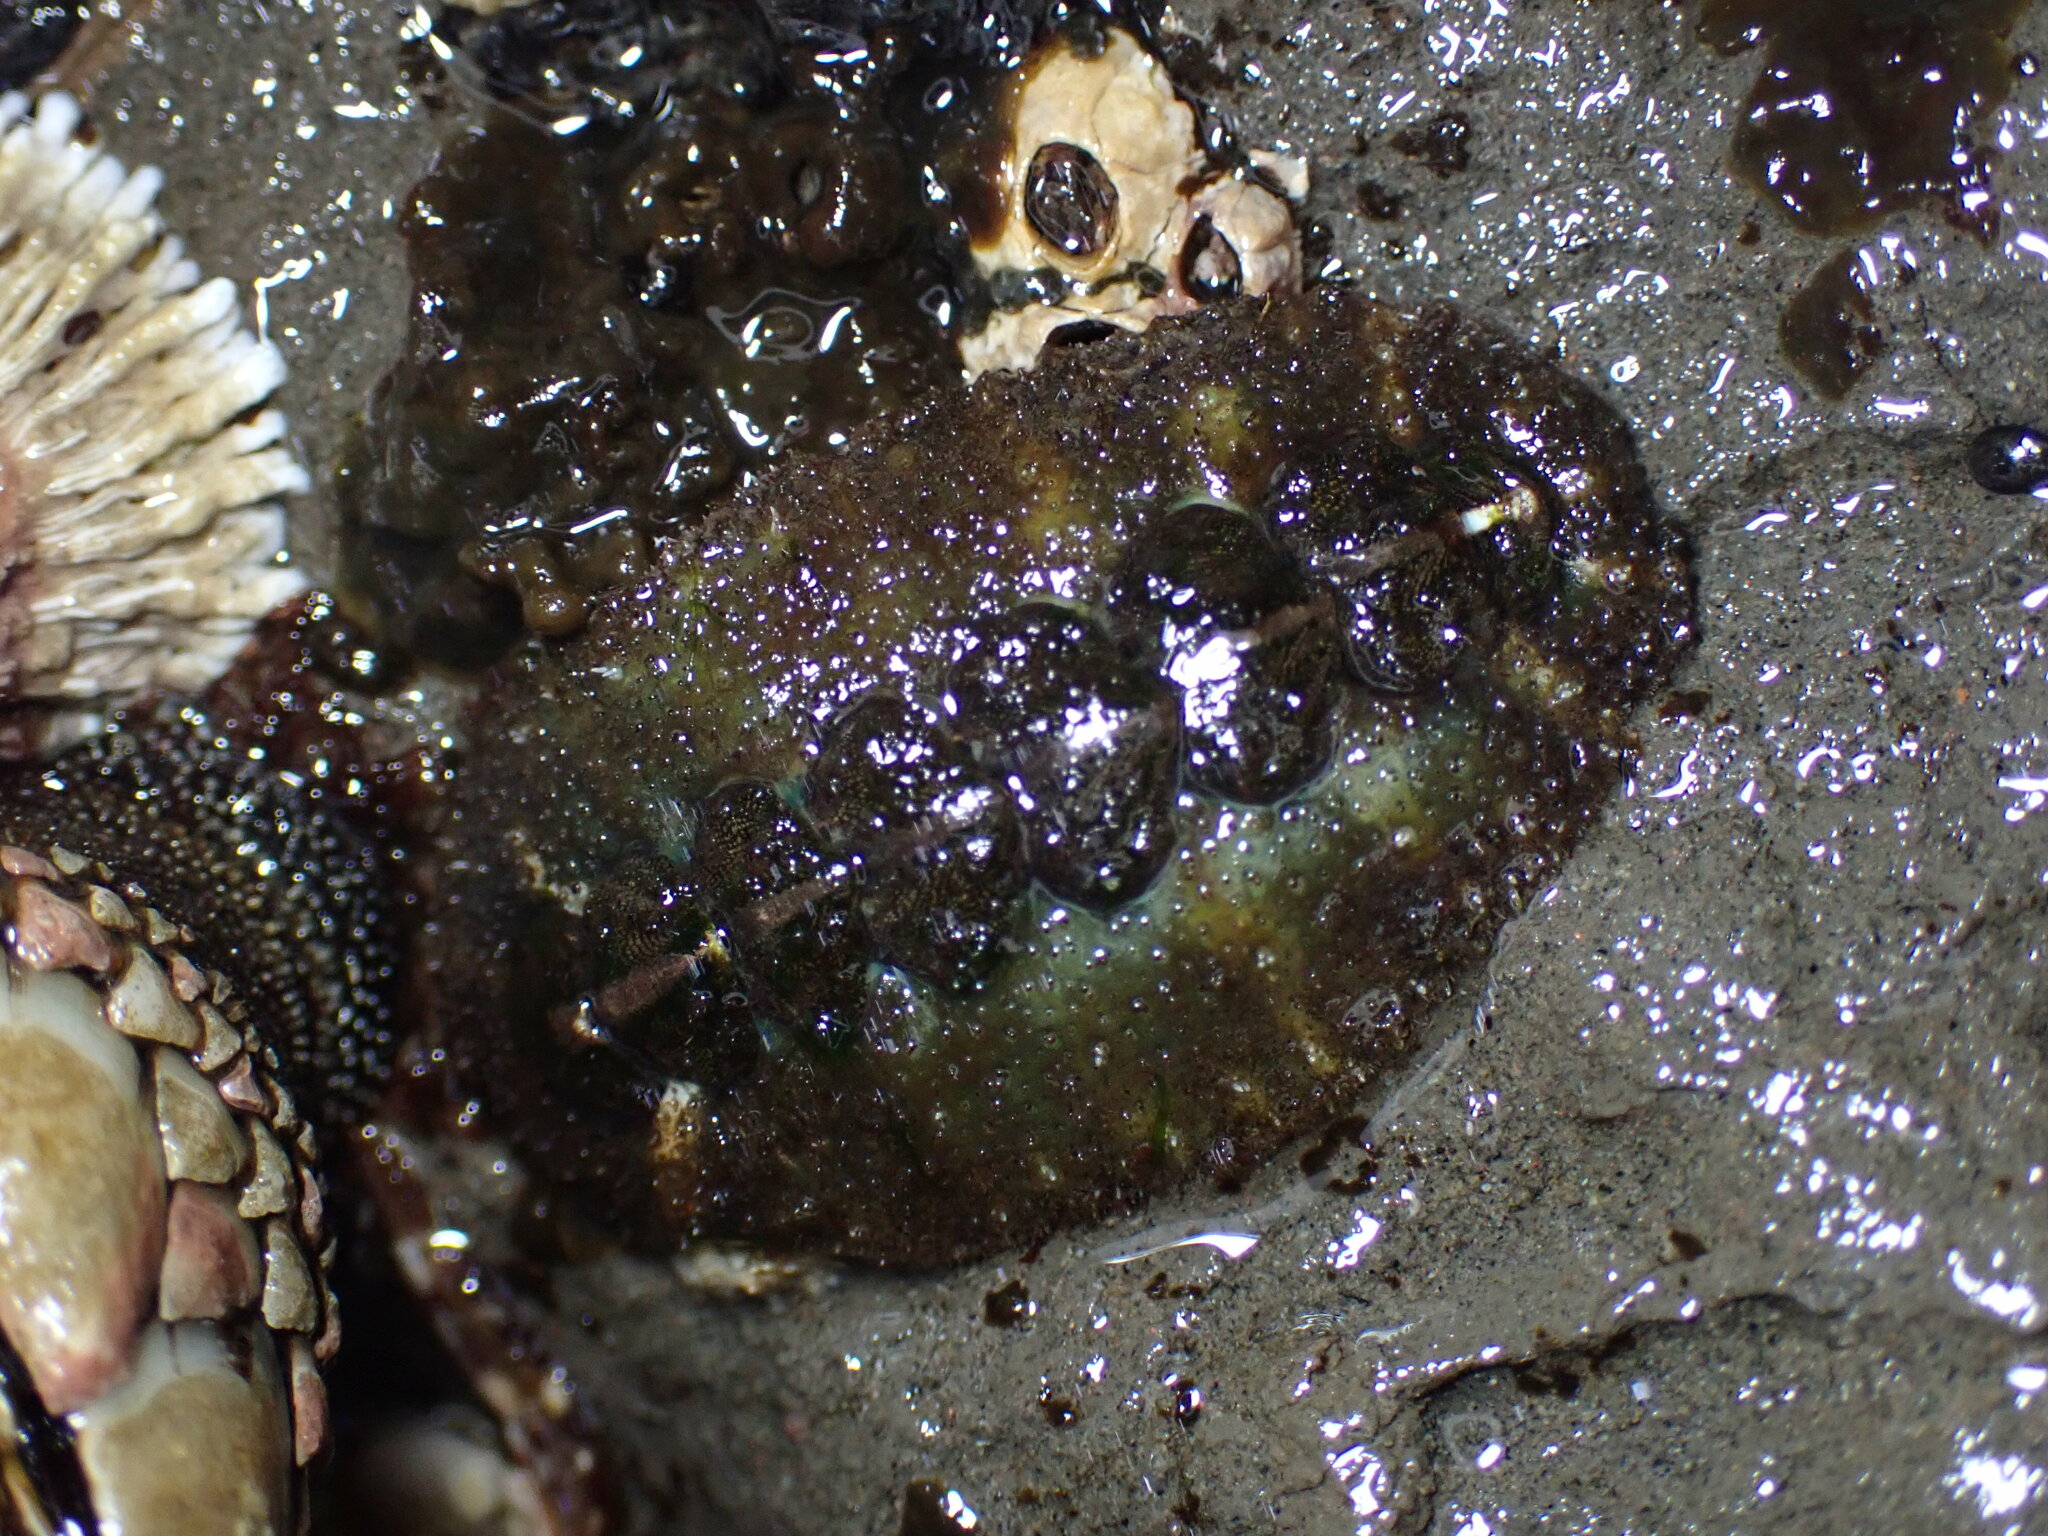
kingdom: Animalia
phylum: Mollusca
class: Polyplacophora
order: Chitonida
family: Tonicellidae
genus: Nuttallina
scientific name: Nuttallina californica
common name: California nuttall chiton
